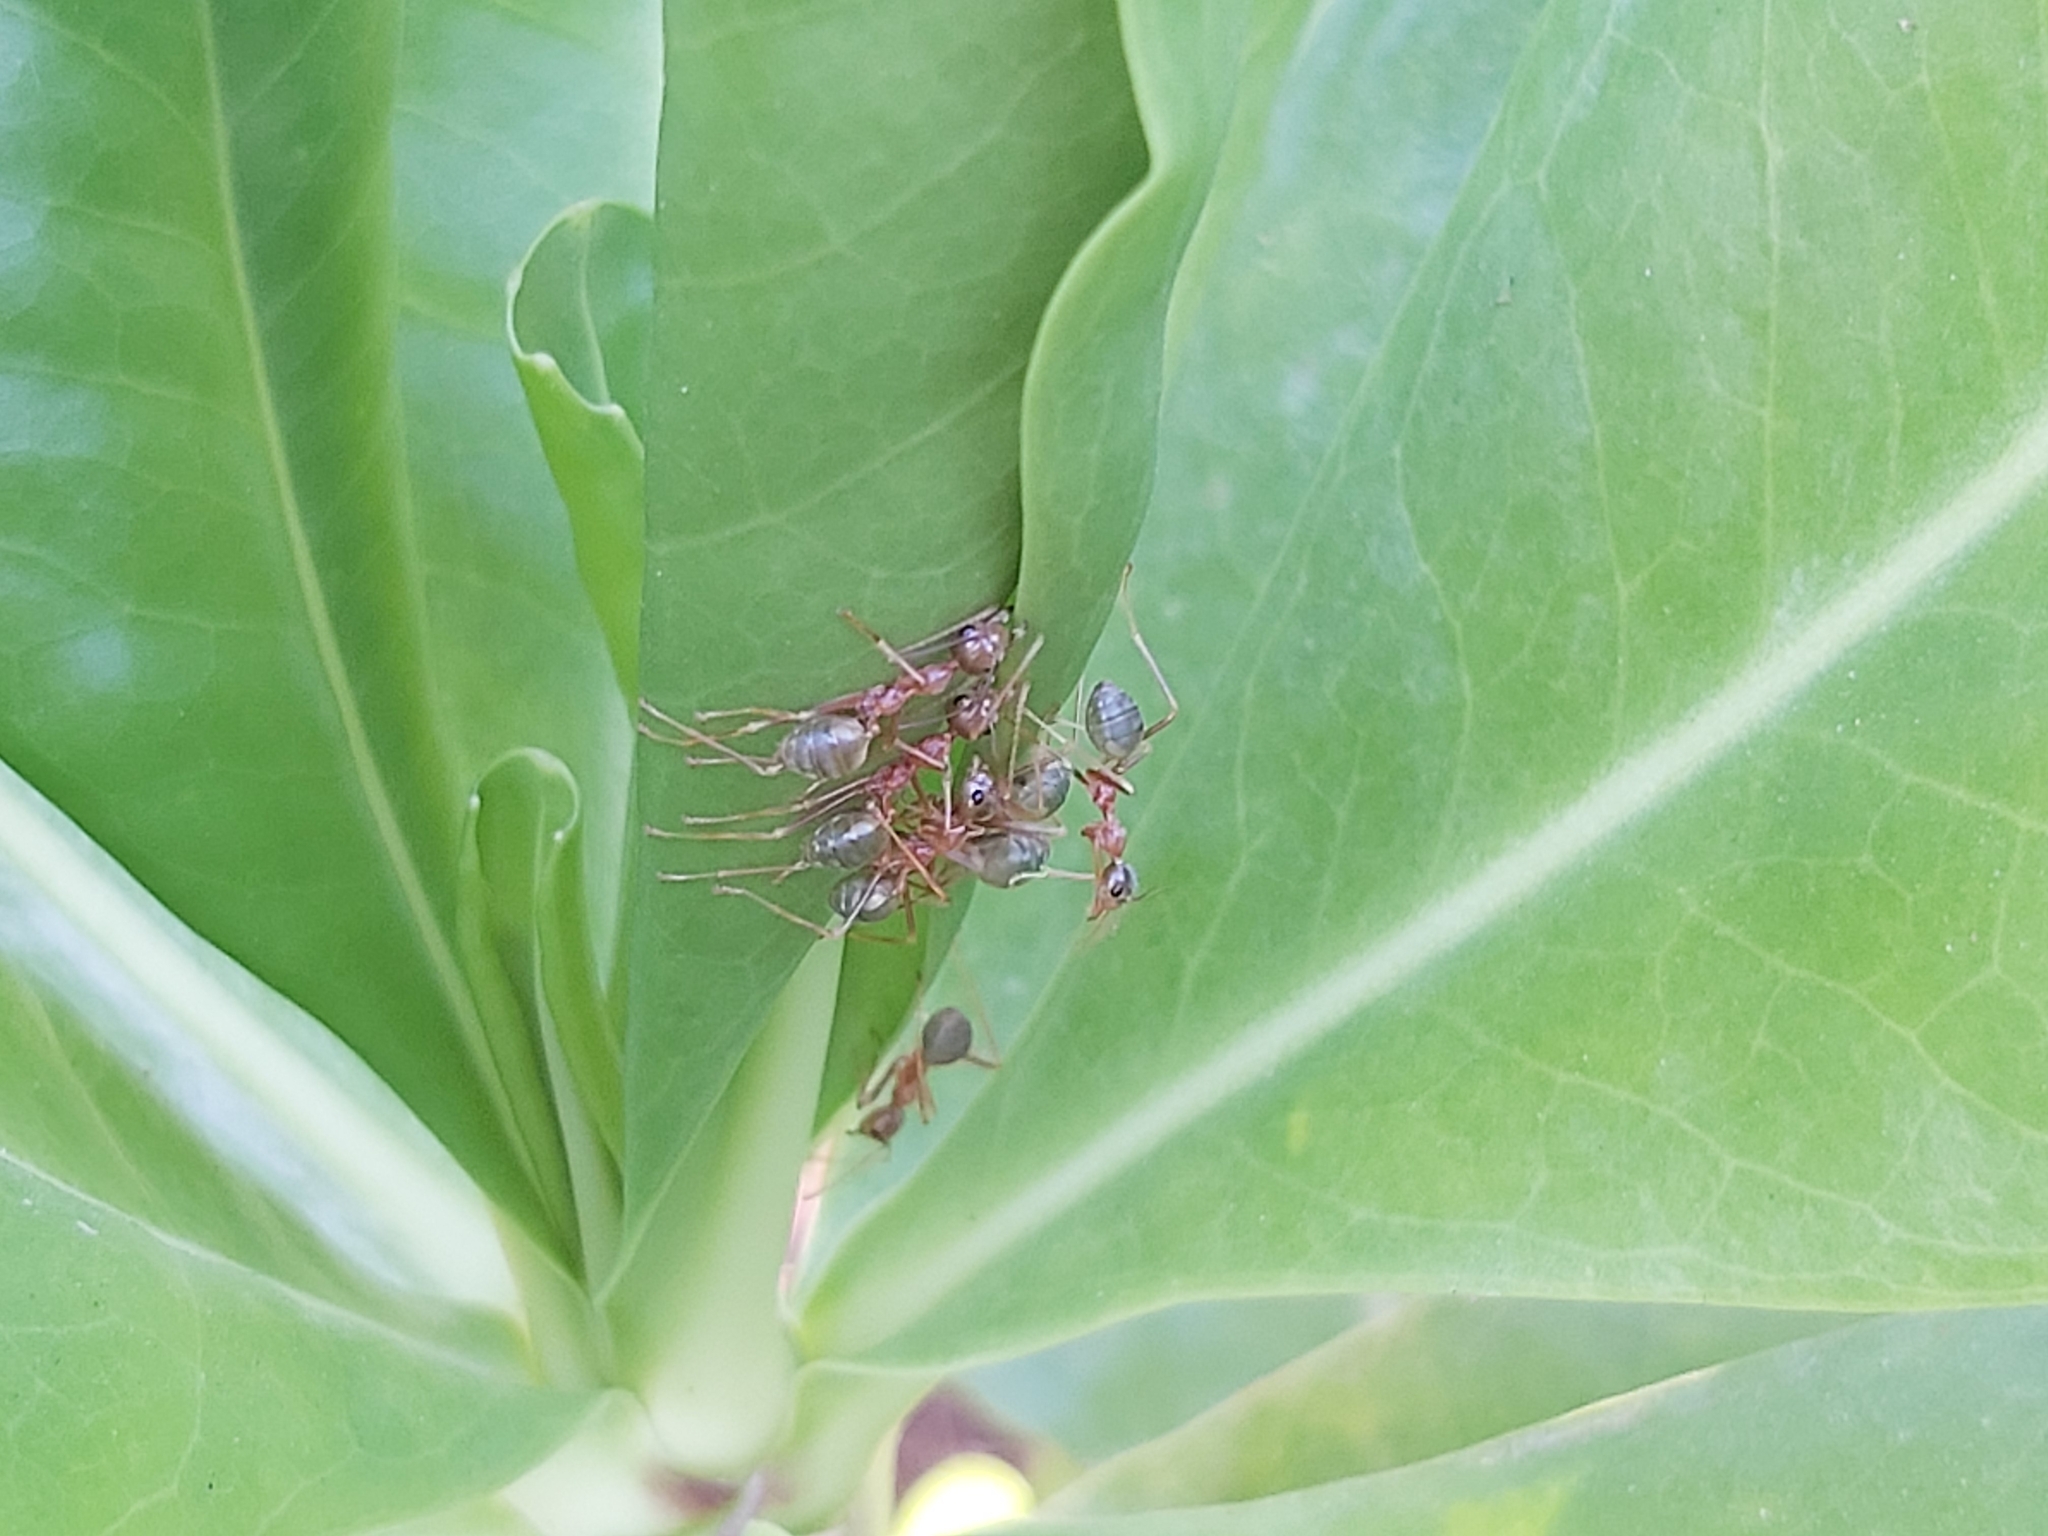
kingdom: Animalia
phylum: Arthropoda
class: Insecta
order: Hymenoptera
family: Formicidae
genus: Oecophylla
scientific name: Oecophylla smaragdina
